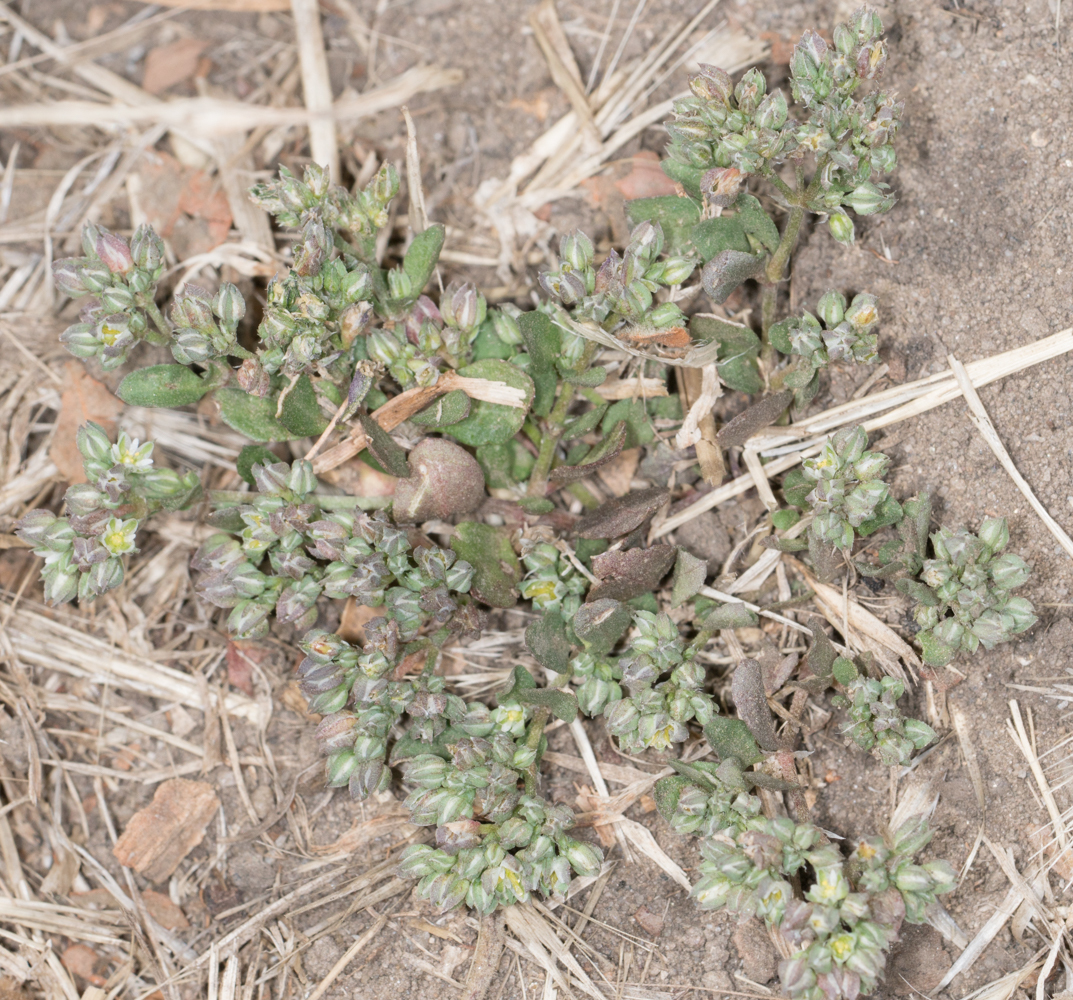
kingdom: Plantae
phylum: Tracheophyta
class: Magnoliopsida
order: Caryophyllales
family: Caryophyllaceae
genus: Polycarpon
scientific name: Polycarpon tetraphyllum
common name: Four-leaved all-seed
